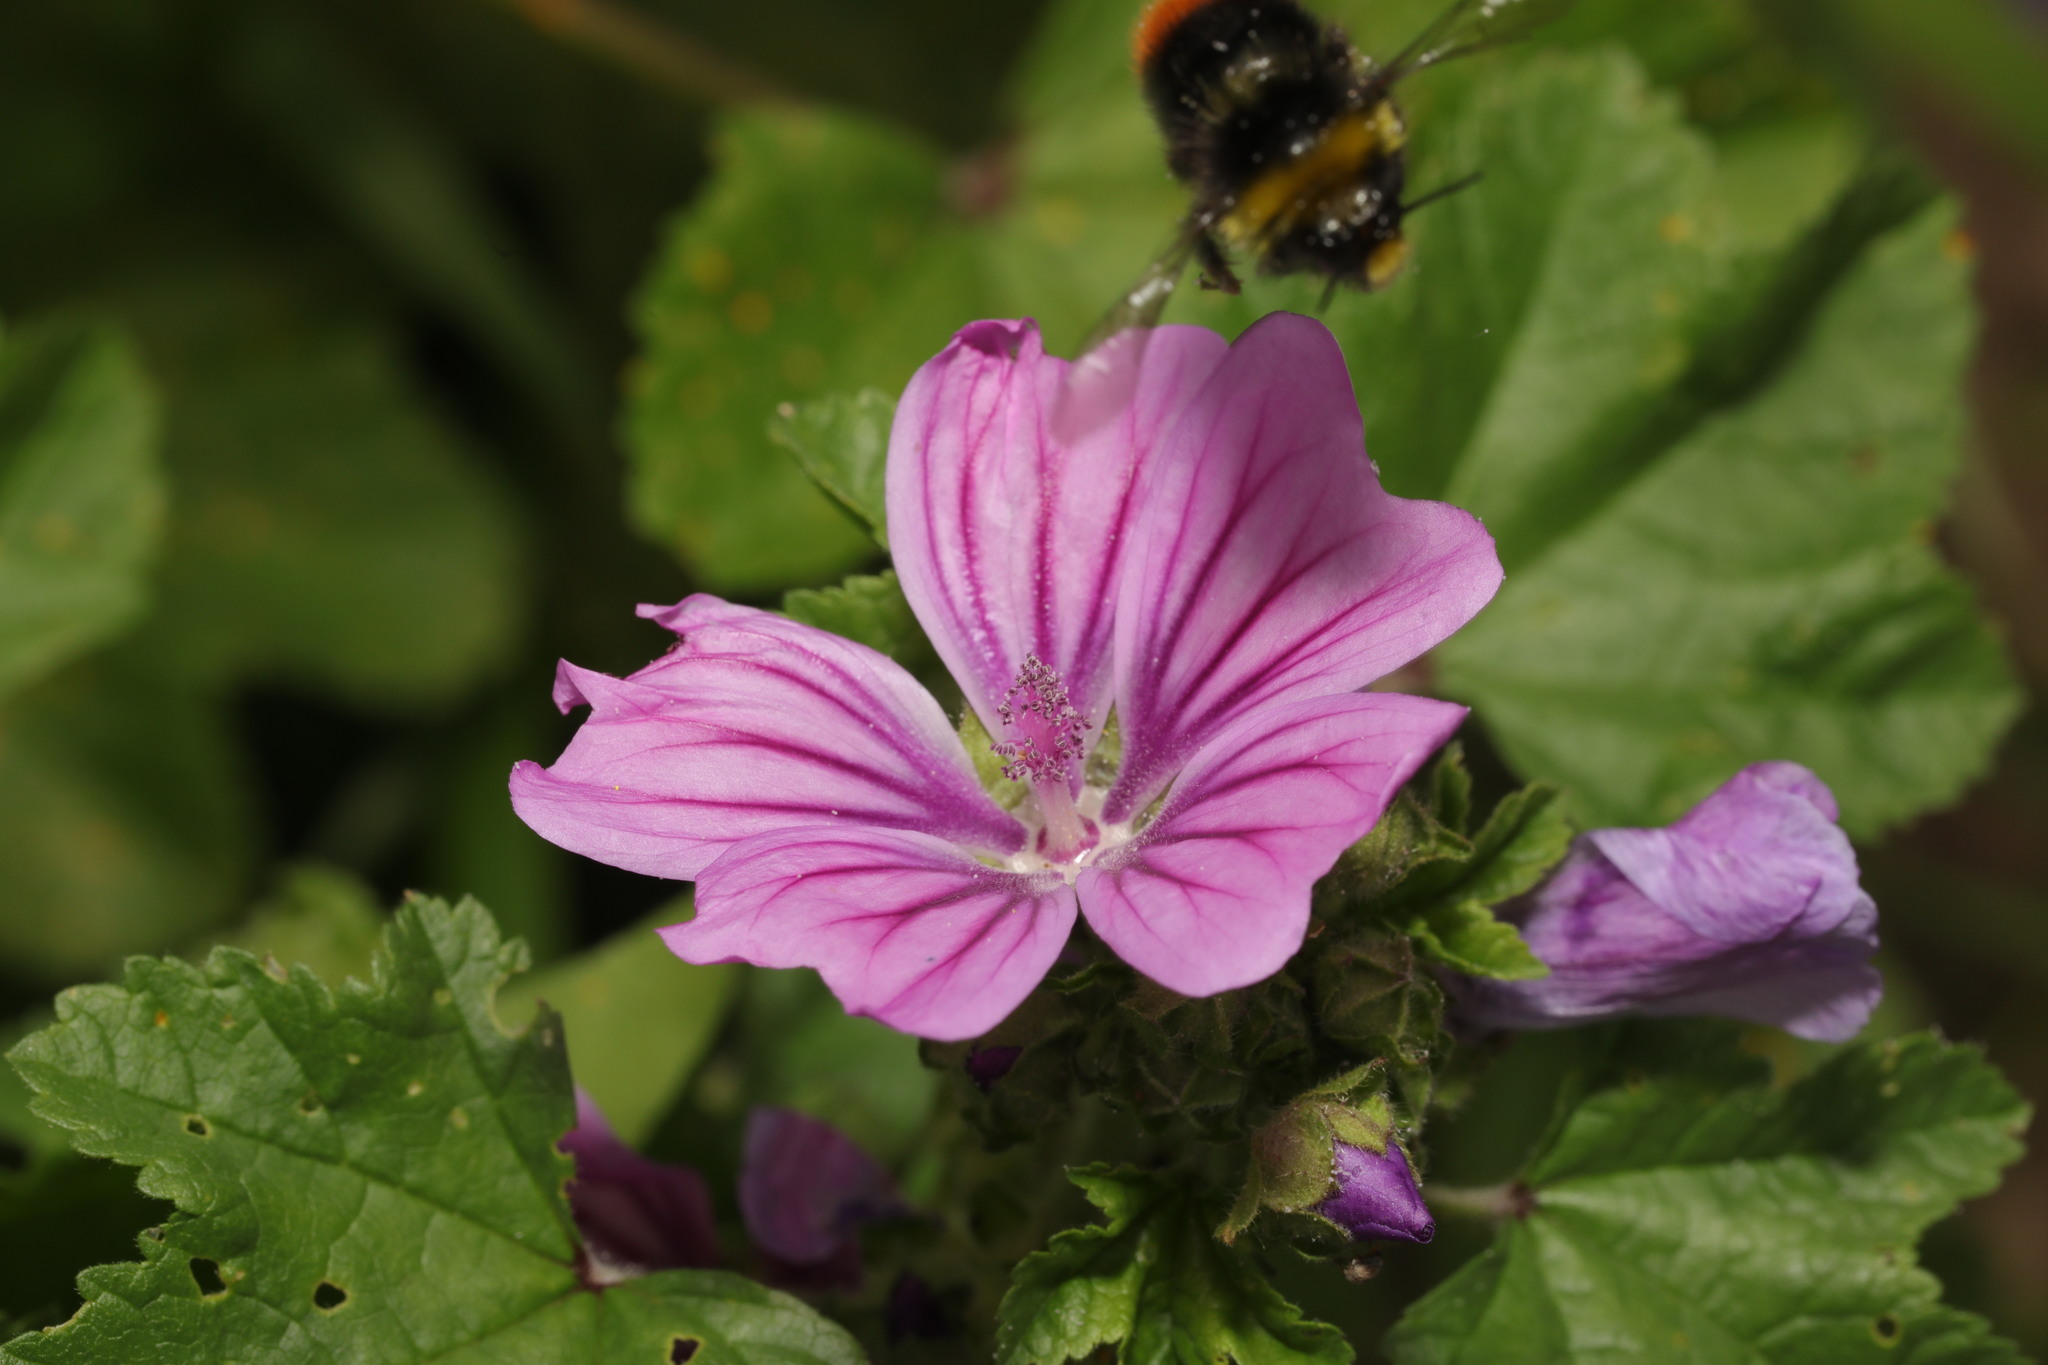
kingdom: Animalia
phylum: Arthropoda
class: Insecta
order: Hymenoptera
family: Apidae
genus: Bombus
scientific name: Bombus lapidarius
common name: Large red-tailed humble-bee
